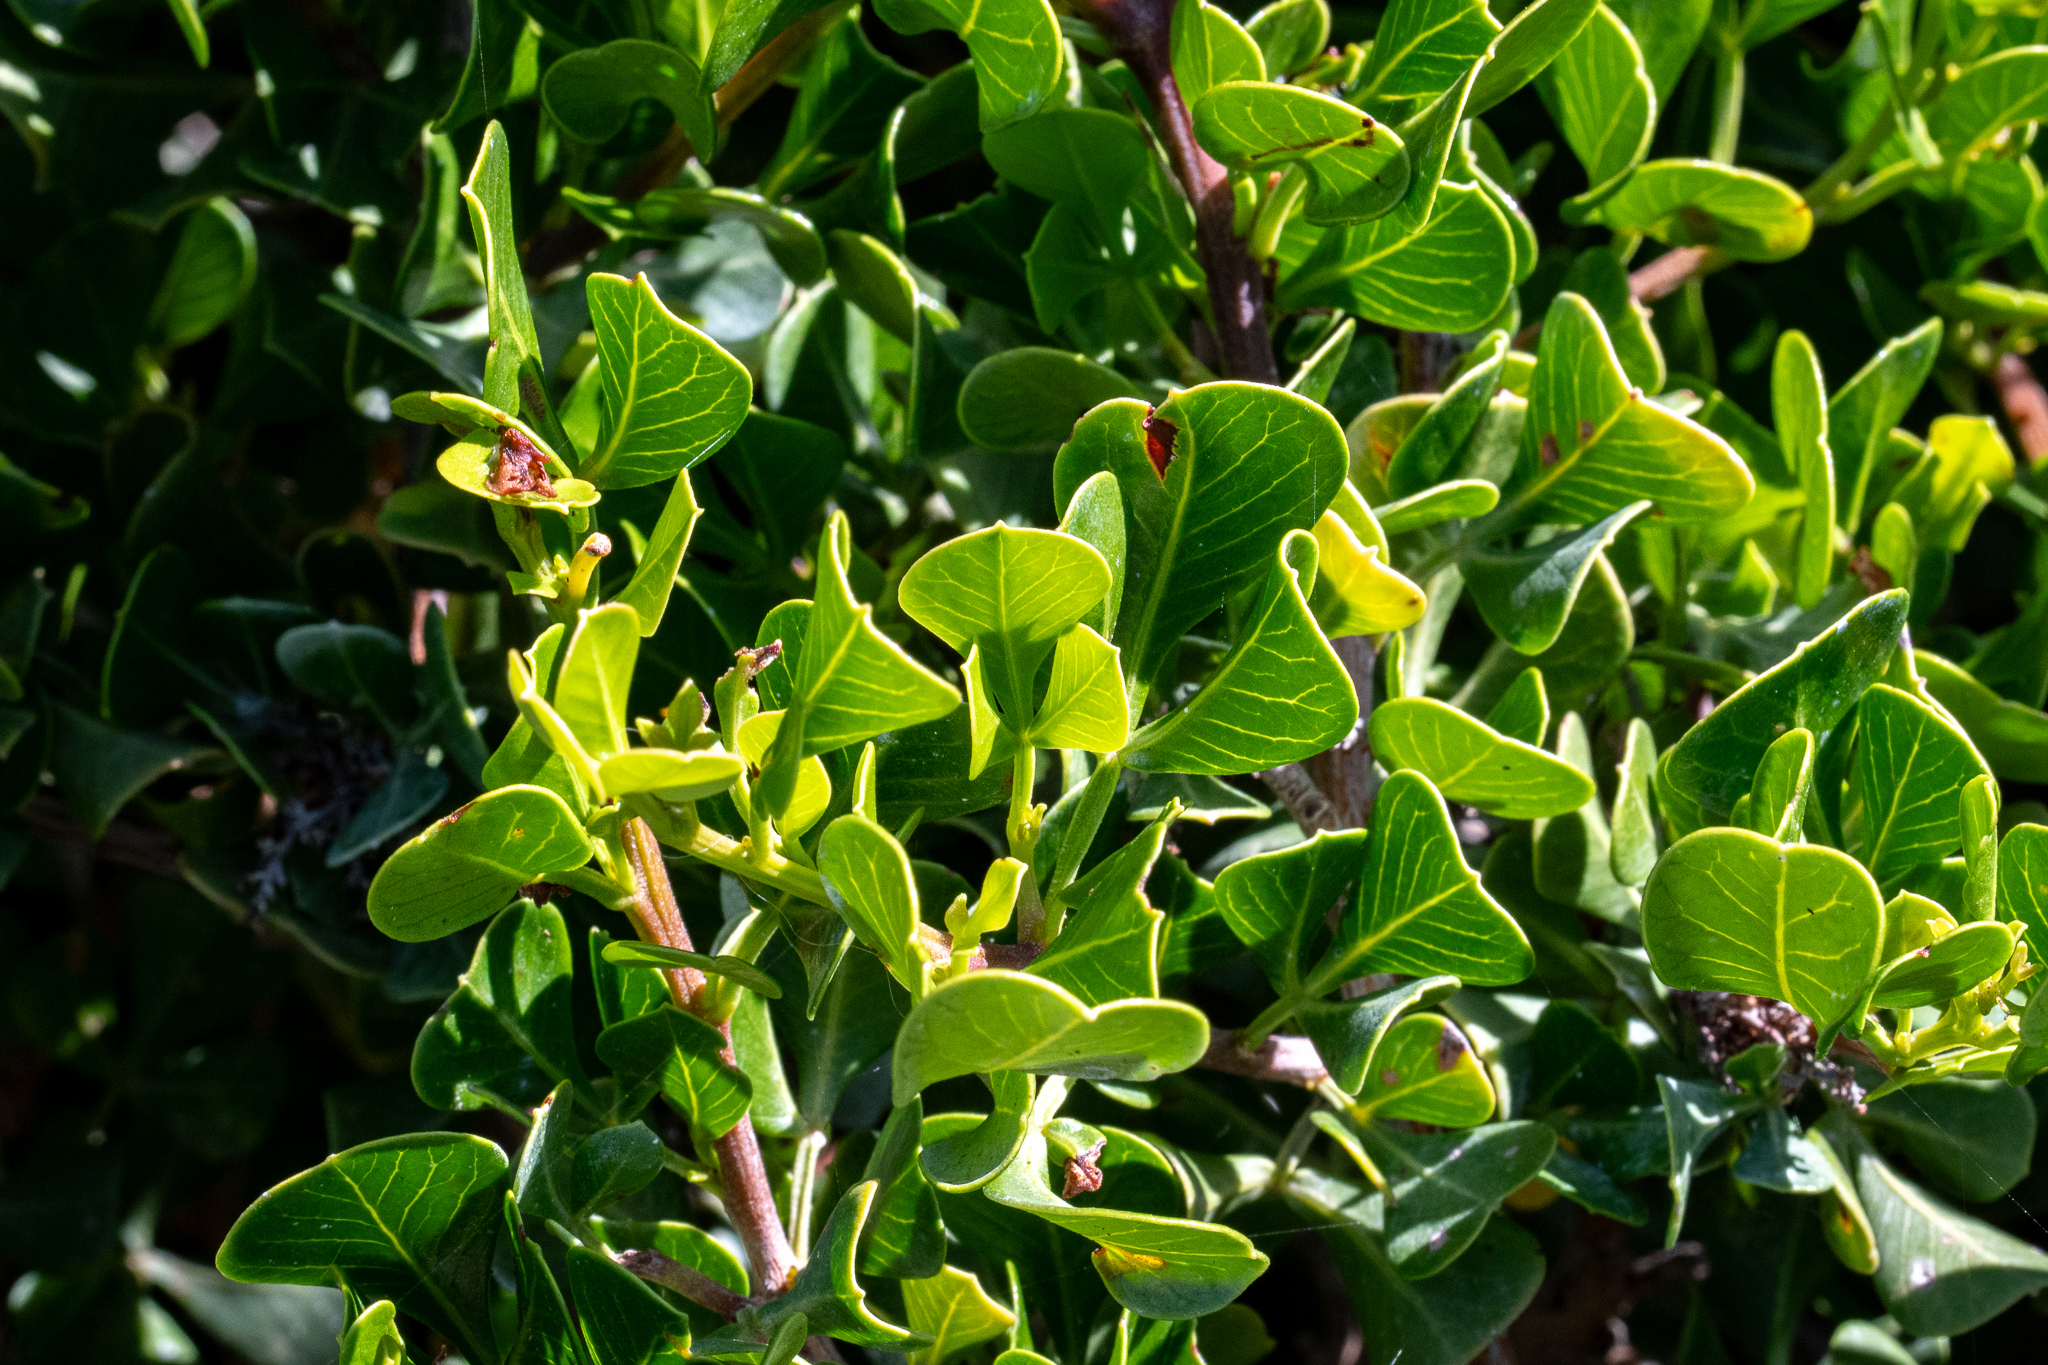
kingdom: Plantae
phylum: Tracheophyta
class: Magnoliopsida
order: Sapindales
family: Anacardiaceae
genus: Searsia
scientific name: Searsia glauca
